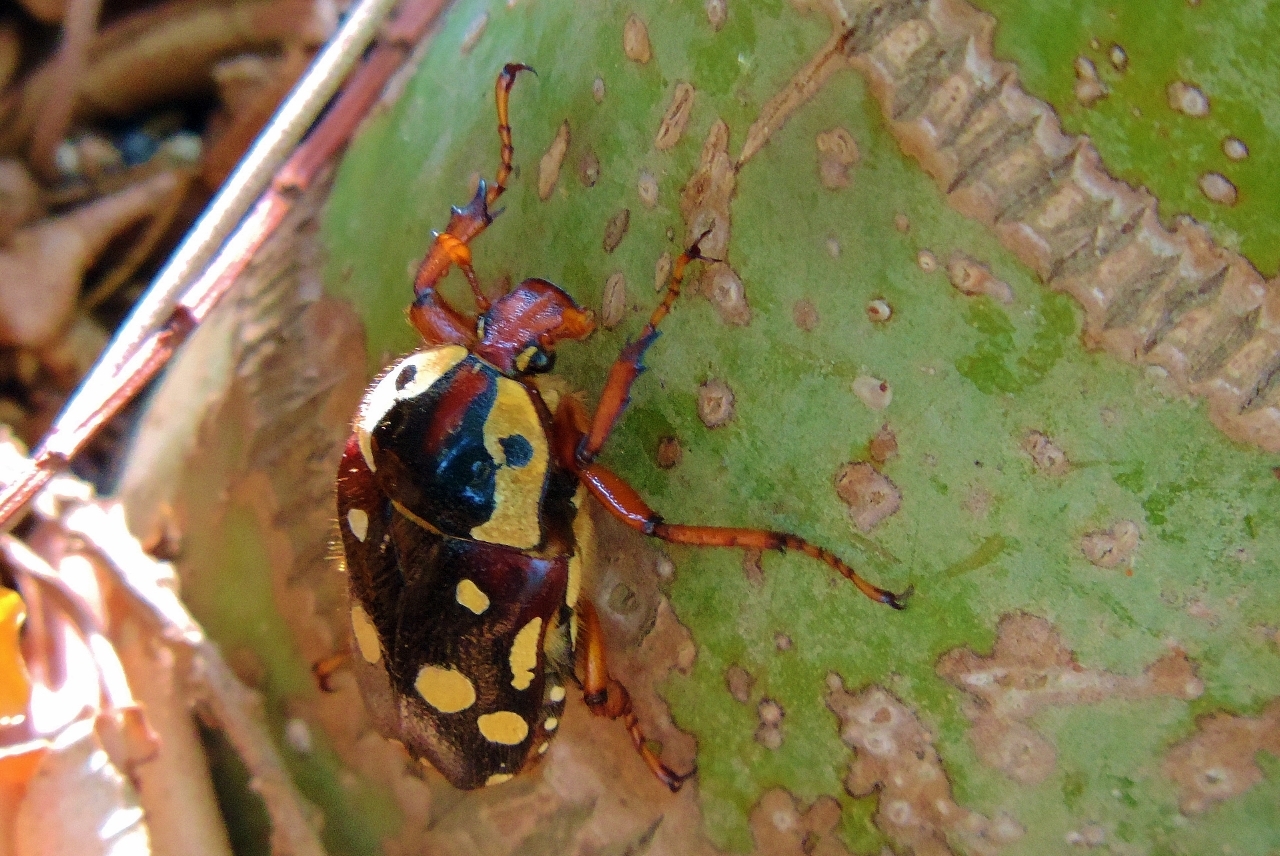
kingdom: Animalia
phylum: Arthropoda
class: Insecta
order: Coleoptera
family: Scarabaeidae
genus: Cheirolasia
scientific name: Cheirolasia burkei
